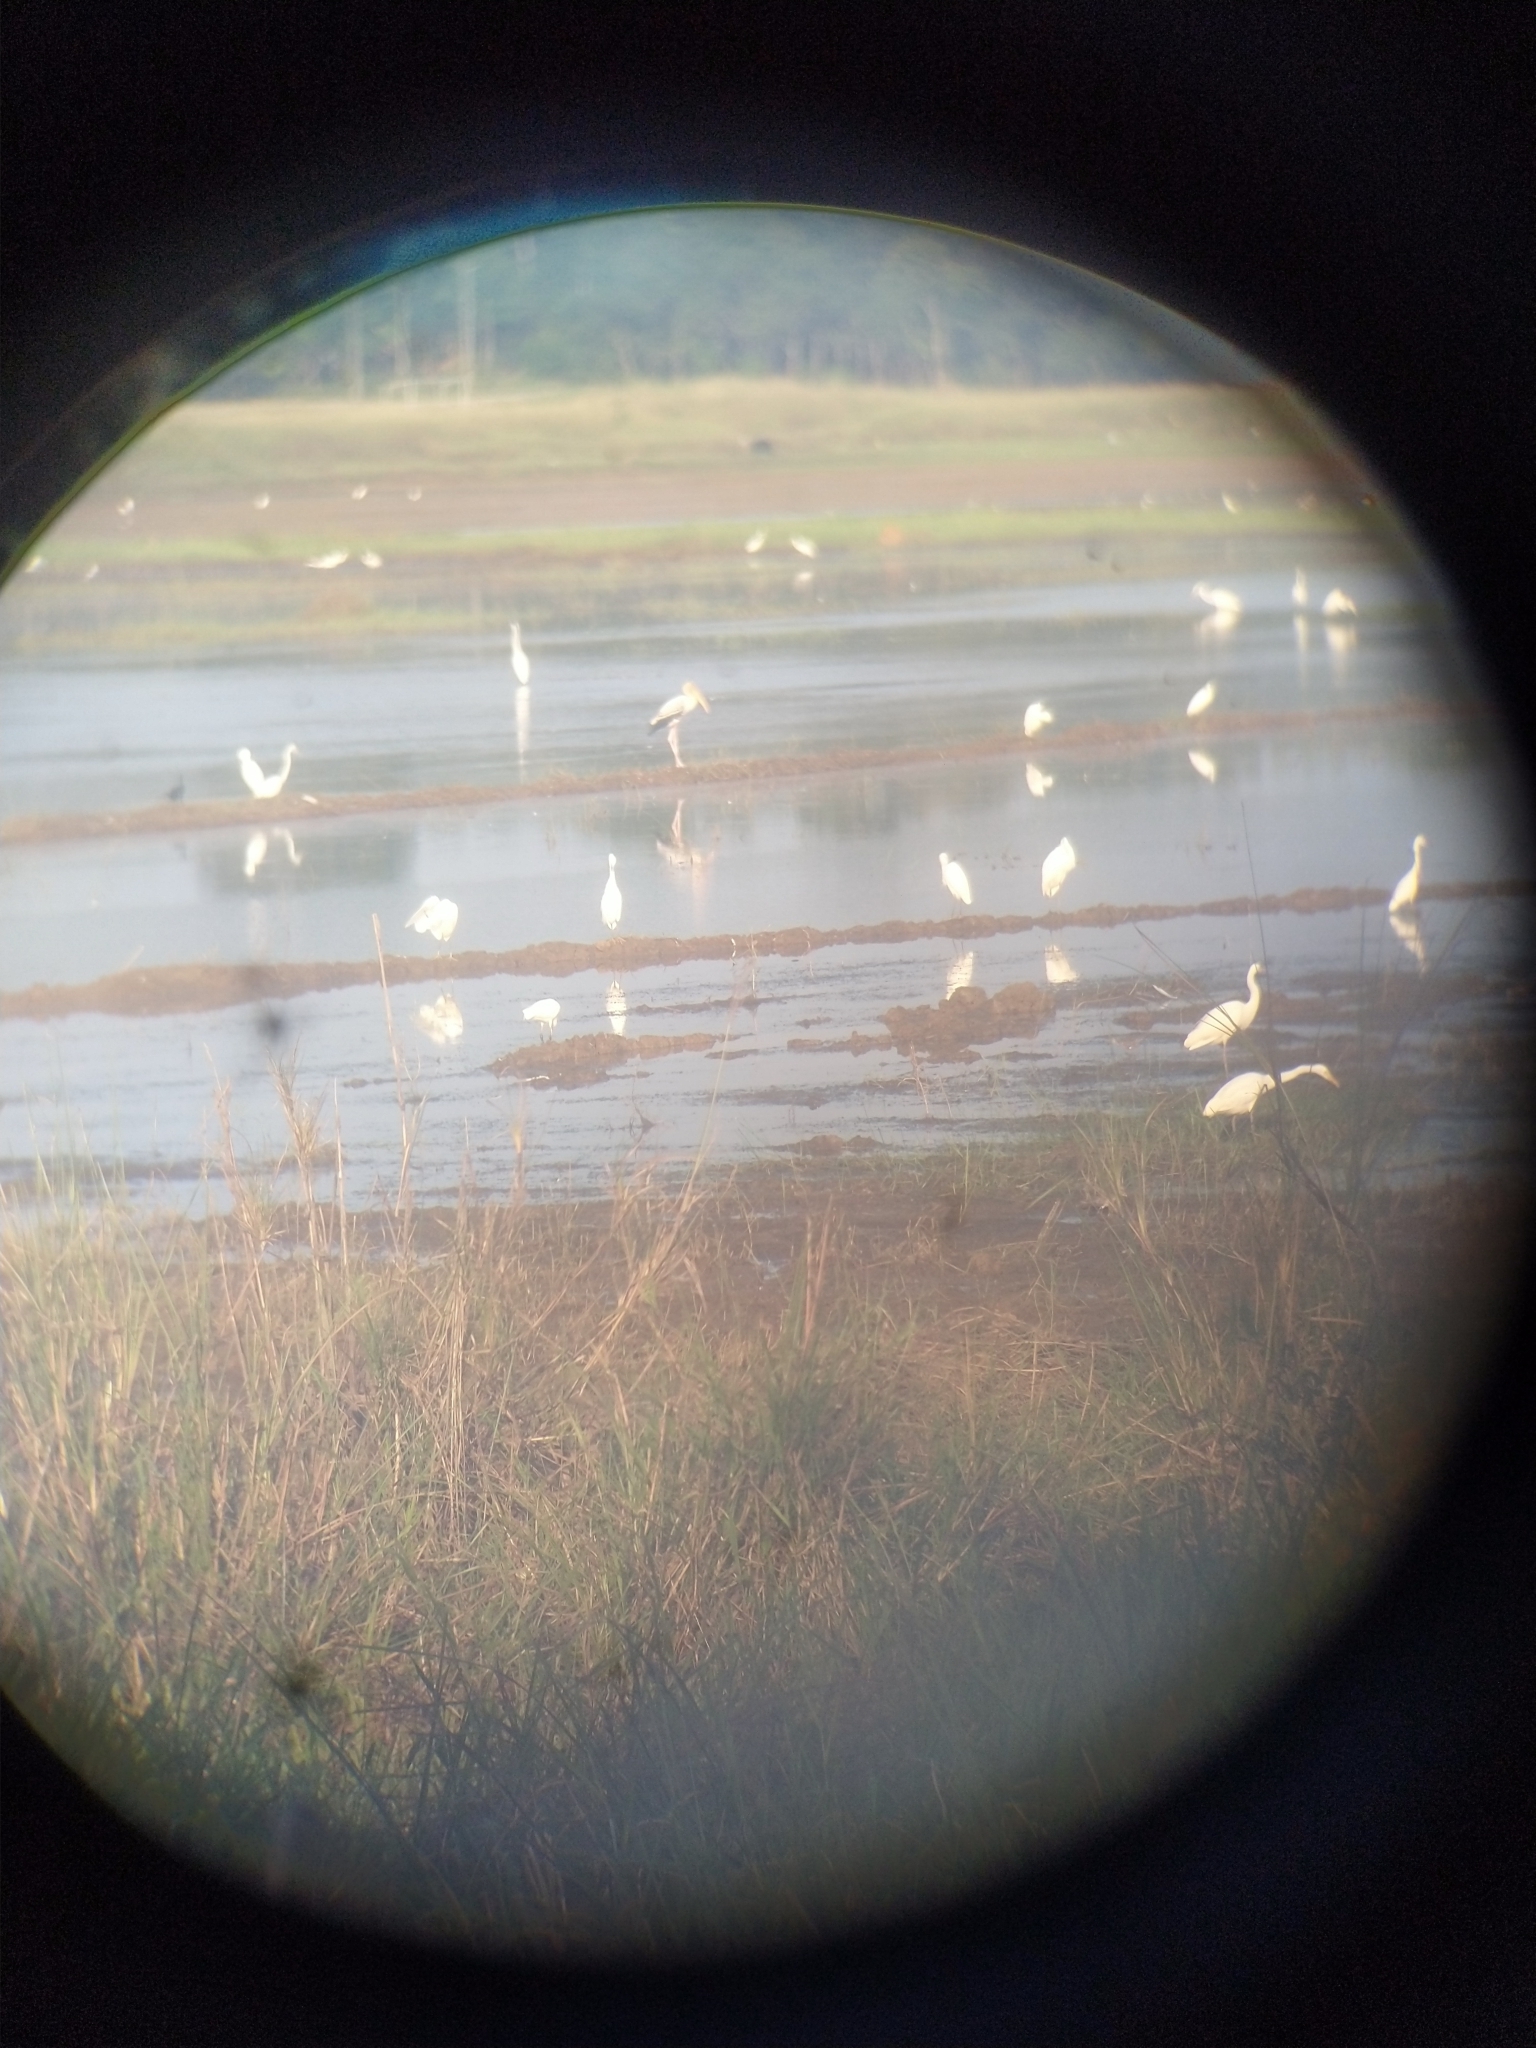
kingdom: Animalia
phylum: Chordata
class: Aves
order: Ciconiiformes
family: Ciconiidae
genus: Mycteria
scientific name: Mycteria leucocephala
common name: Painted stork
